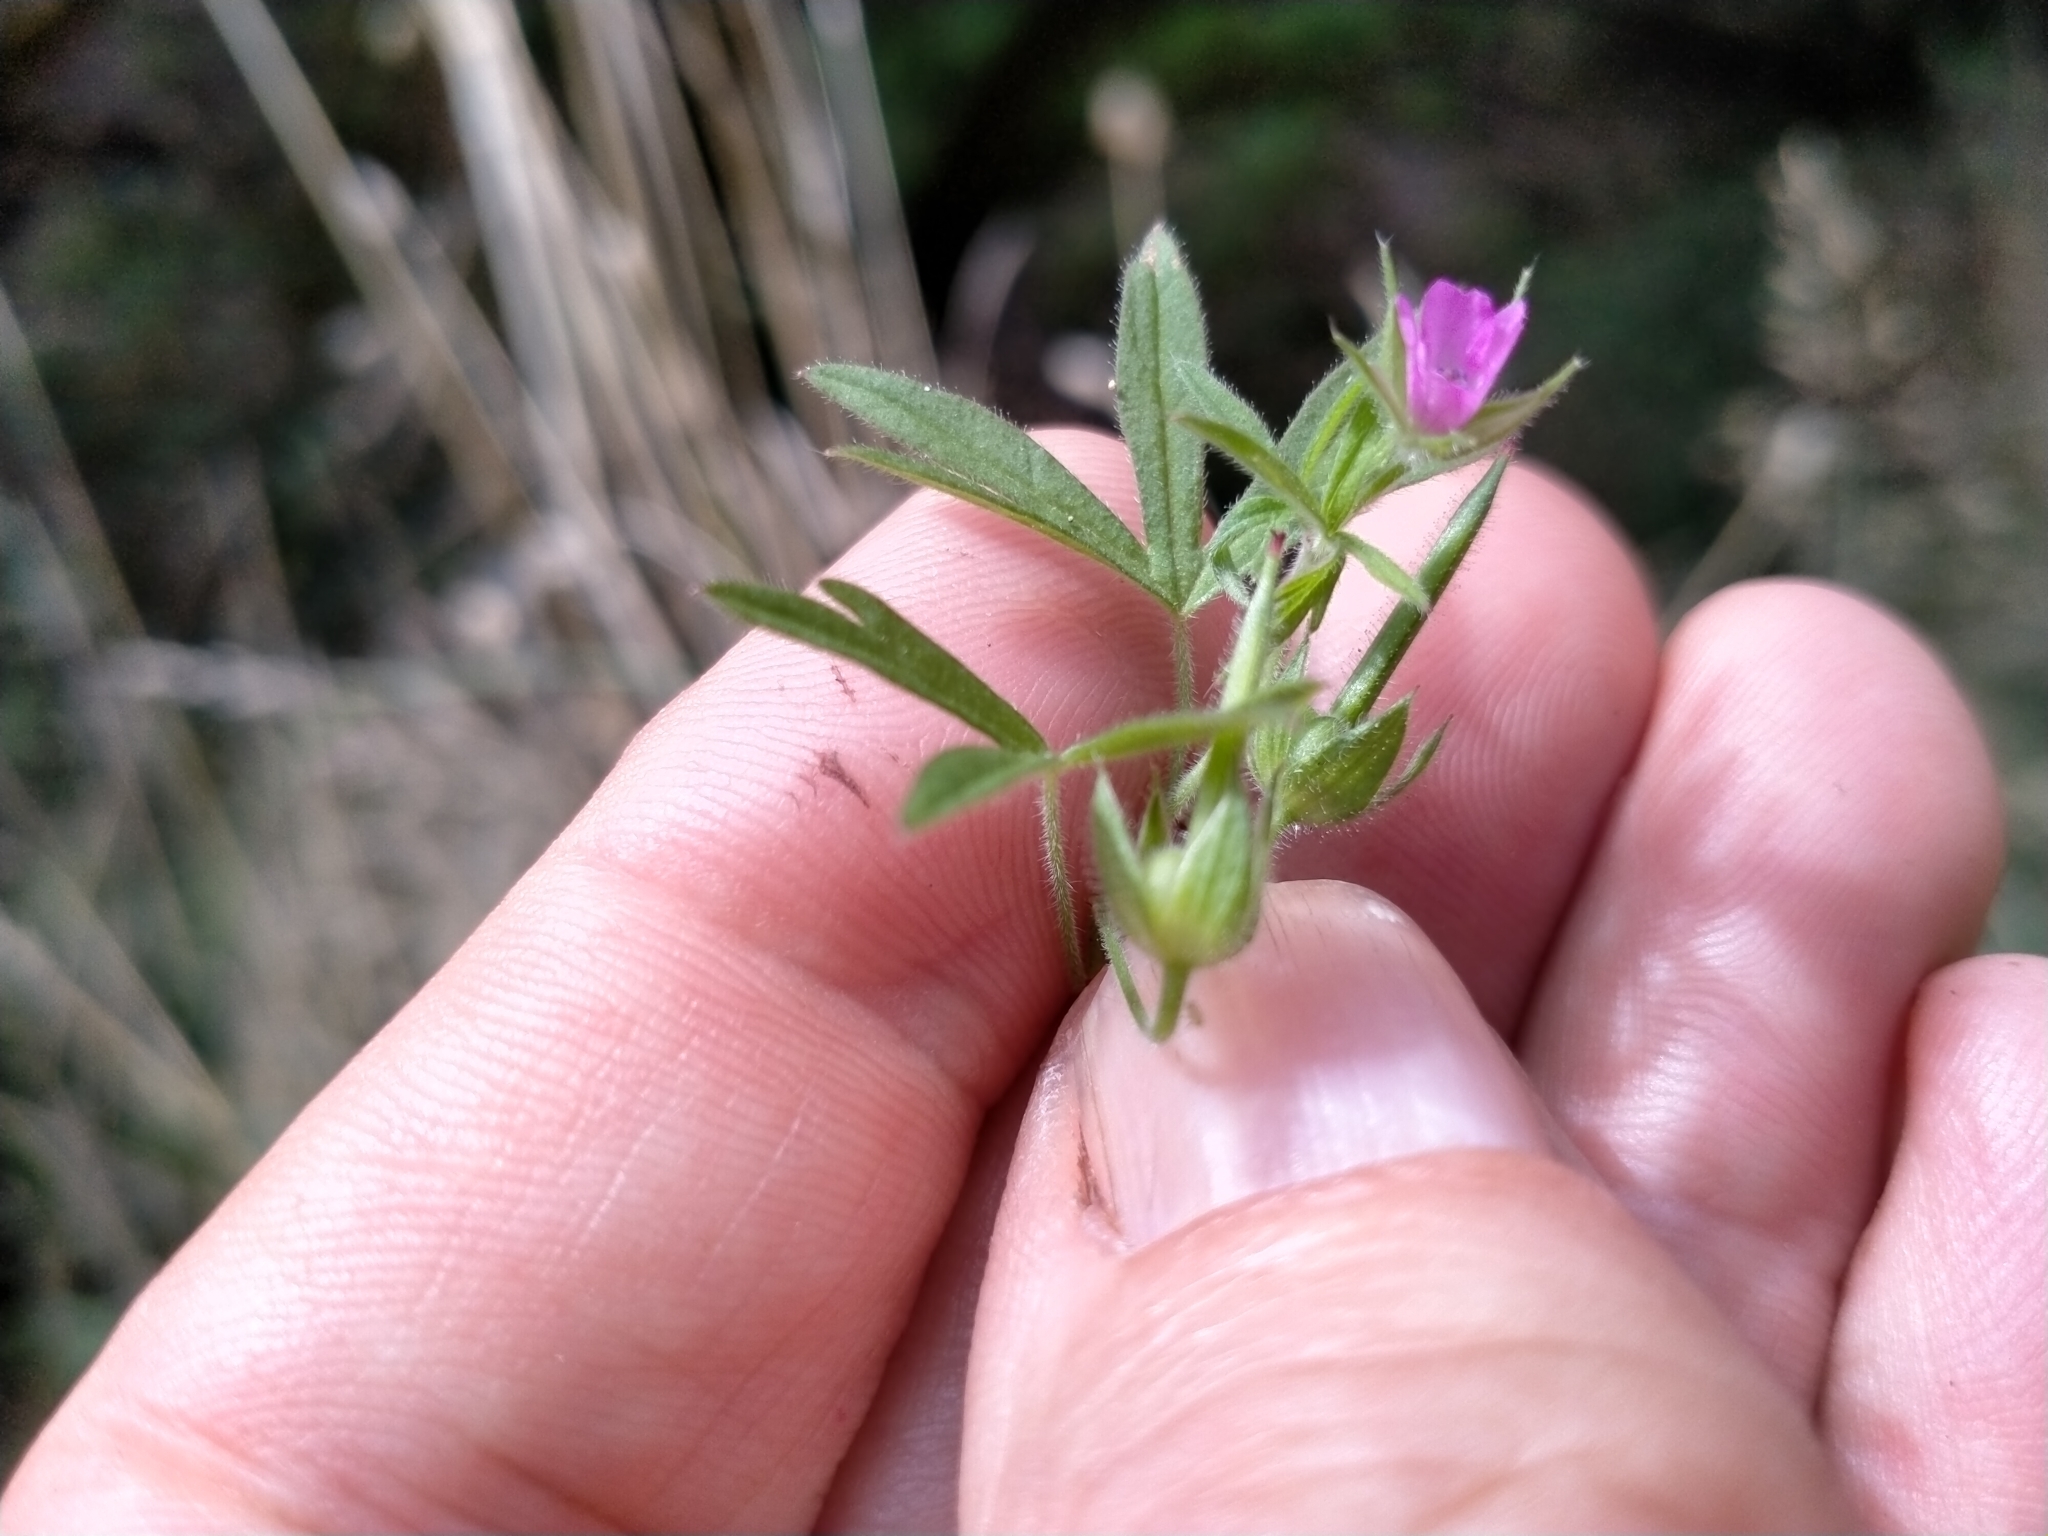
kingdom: Plantae
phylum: Tracheophyta
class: Magnoliopsida
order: Geraniales
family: Geraniaceae
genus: Geranium
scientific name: Geranium dissectum
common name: Cut-leaved crane's-bill
